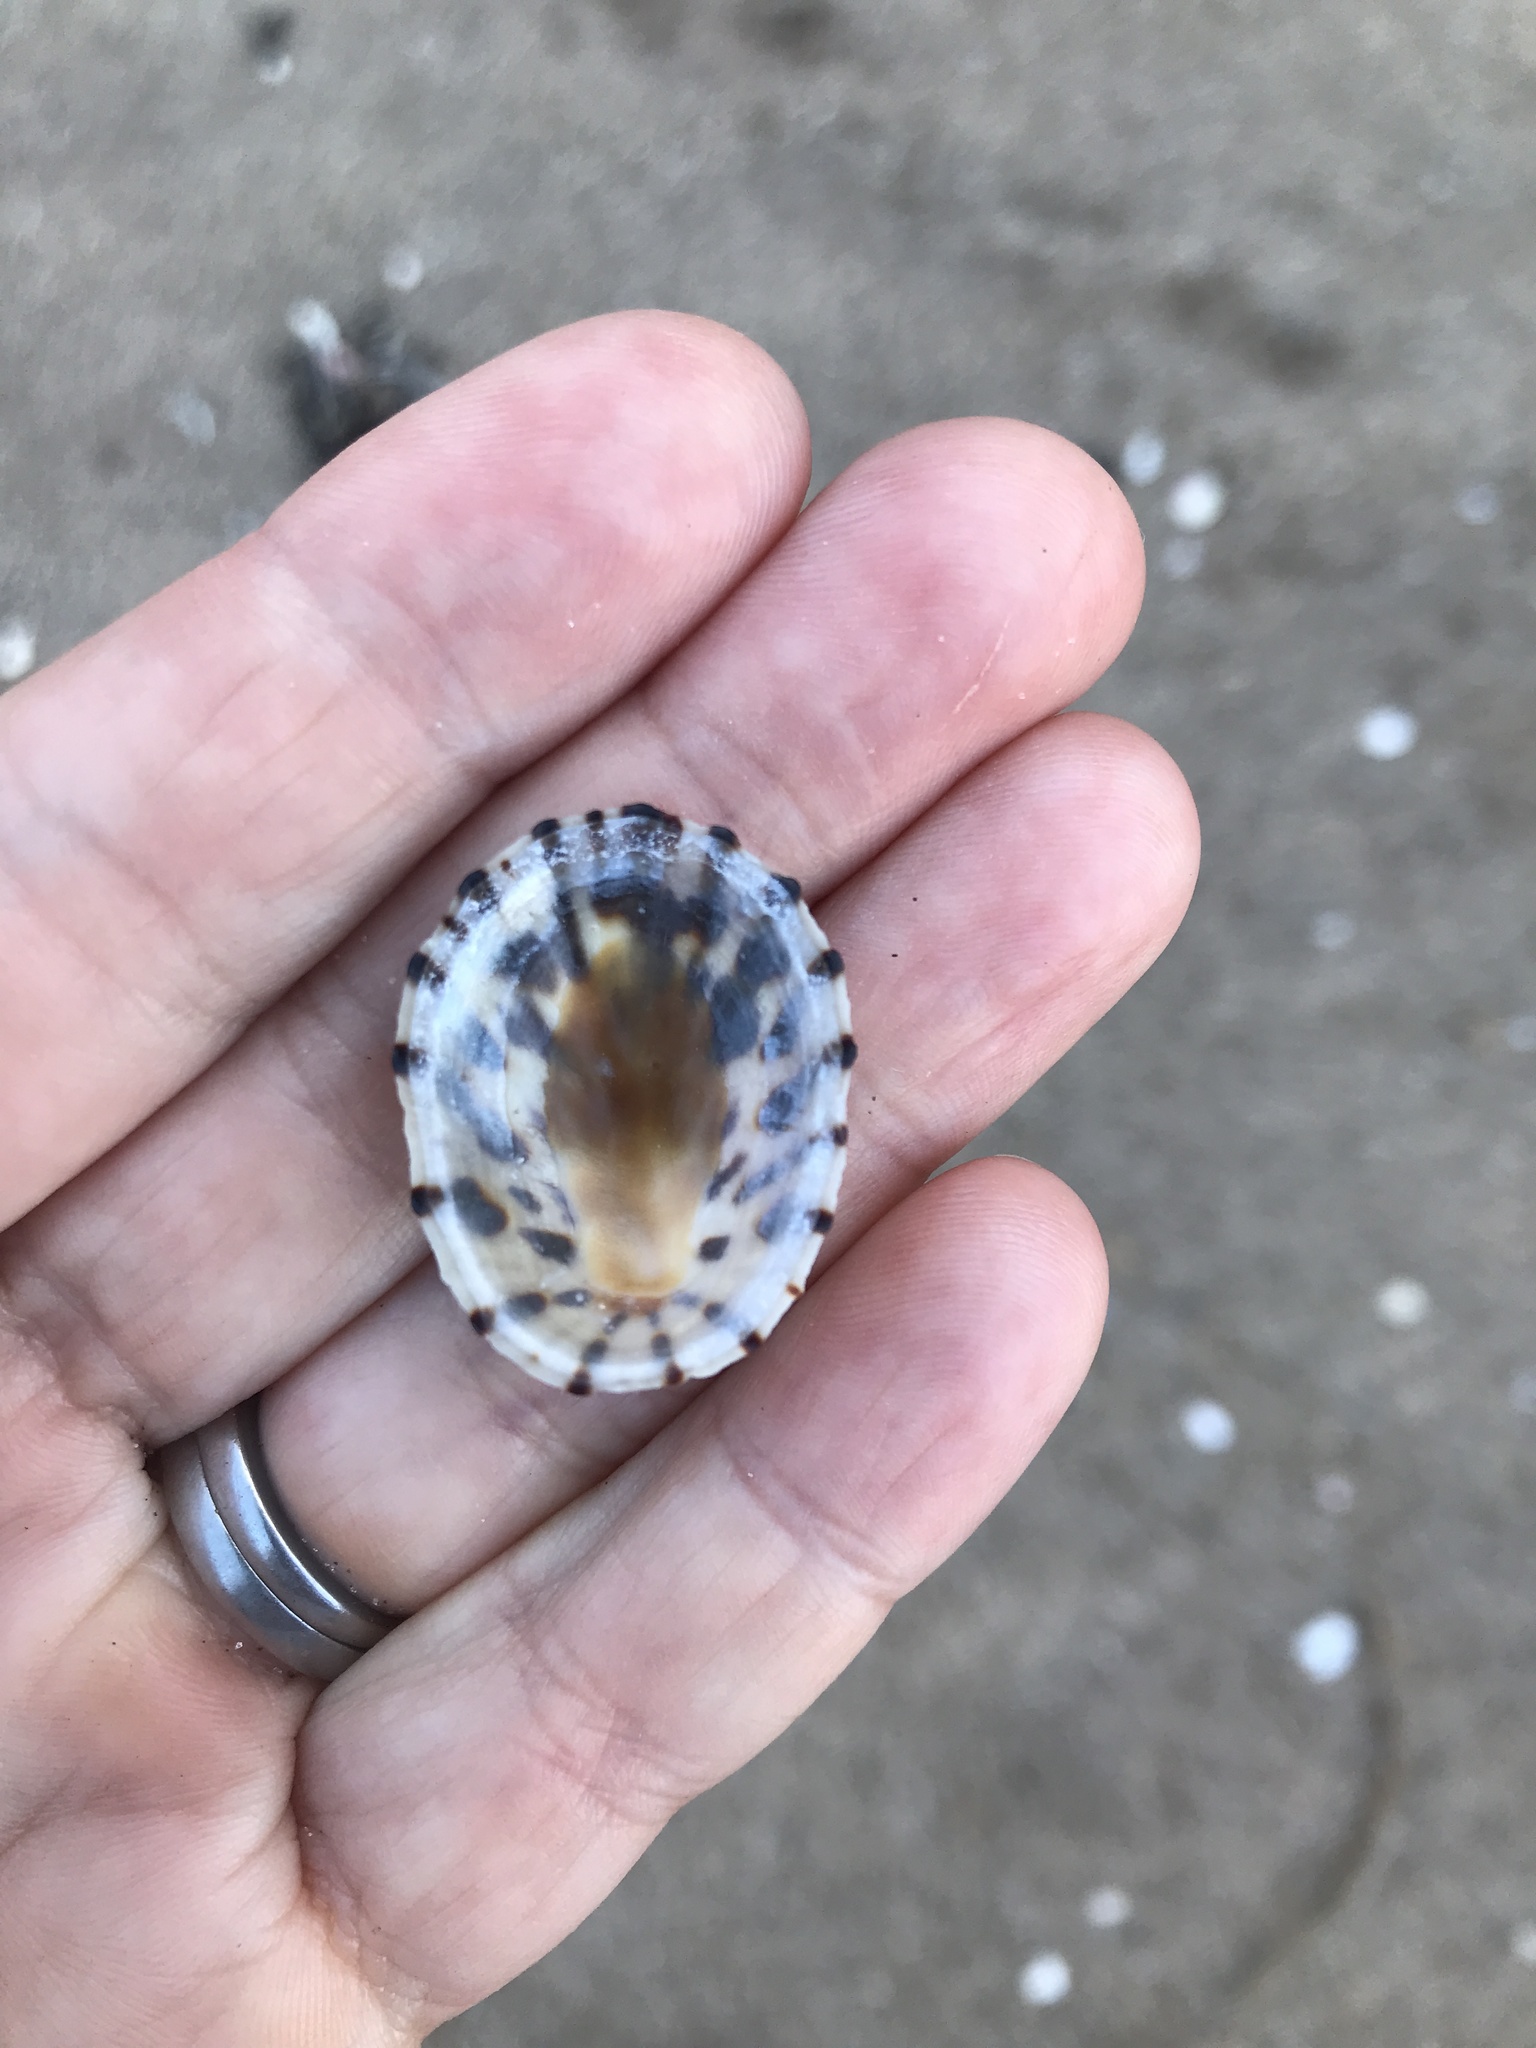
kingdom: Animalia
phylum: Mollusca
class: Gastropoda
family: Nacellidae
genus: Cellana
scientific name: Cellana radians
